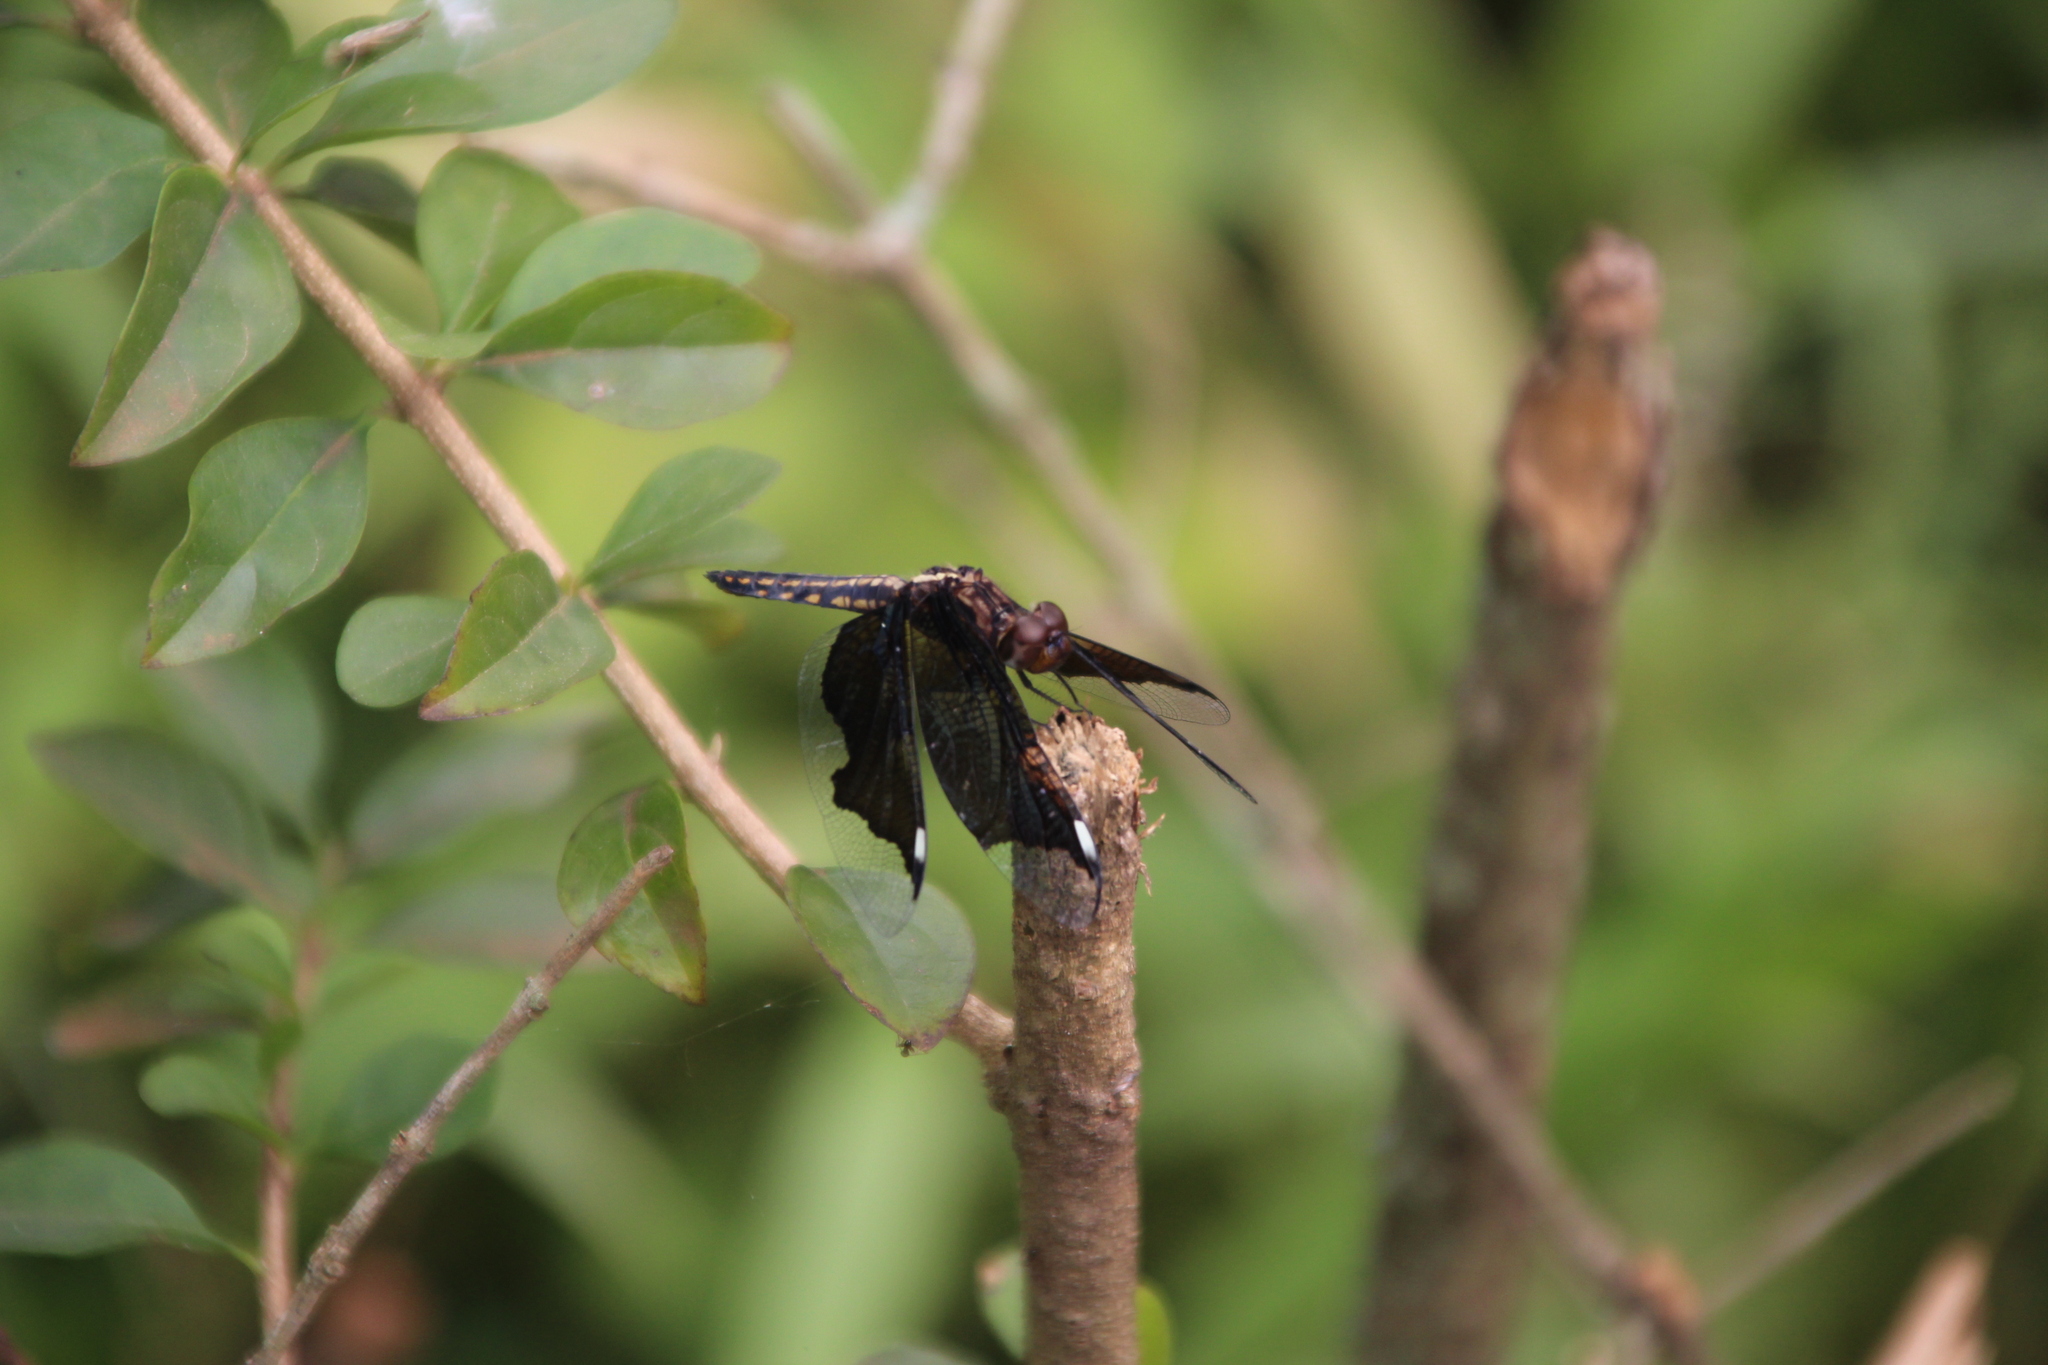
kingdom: Animalia
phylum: Arthropoda
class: Insecta
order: Odonata
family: Libellulidae
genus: Palpopleura
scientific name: Palpopleura lucia
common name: Lucia widow
